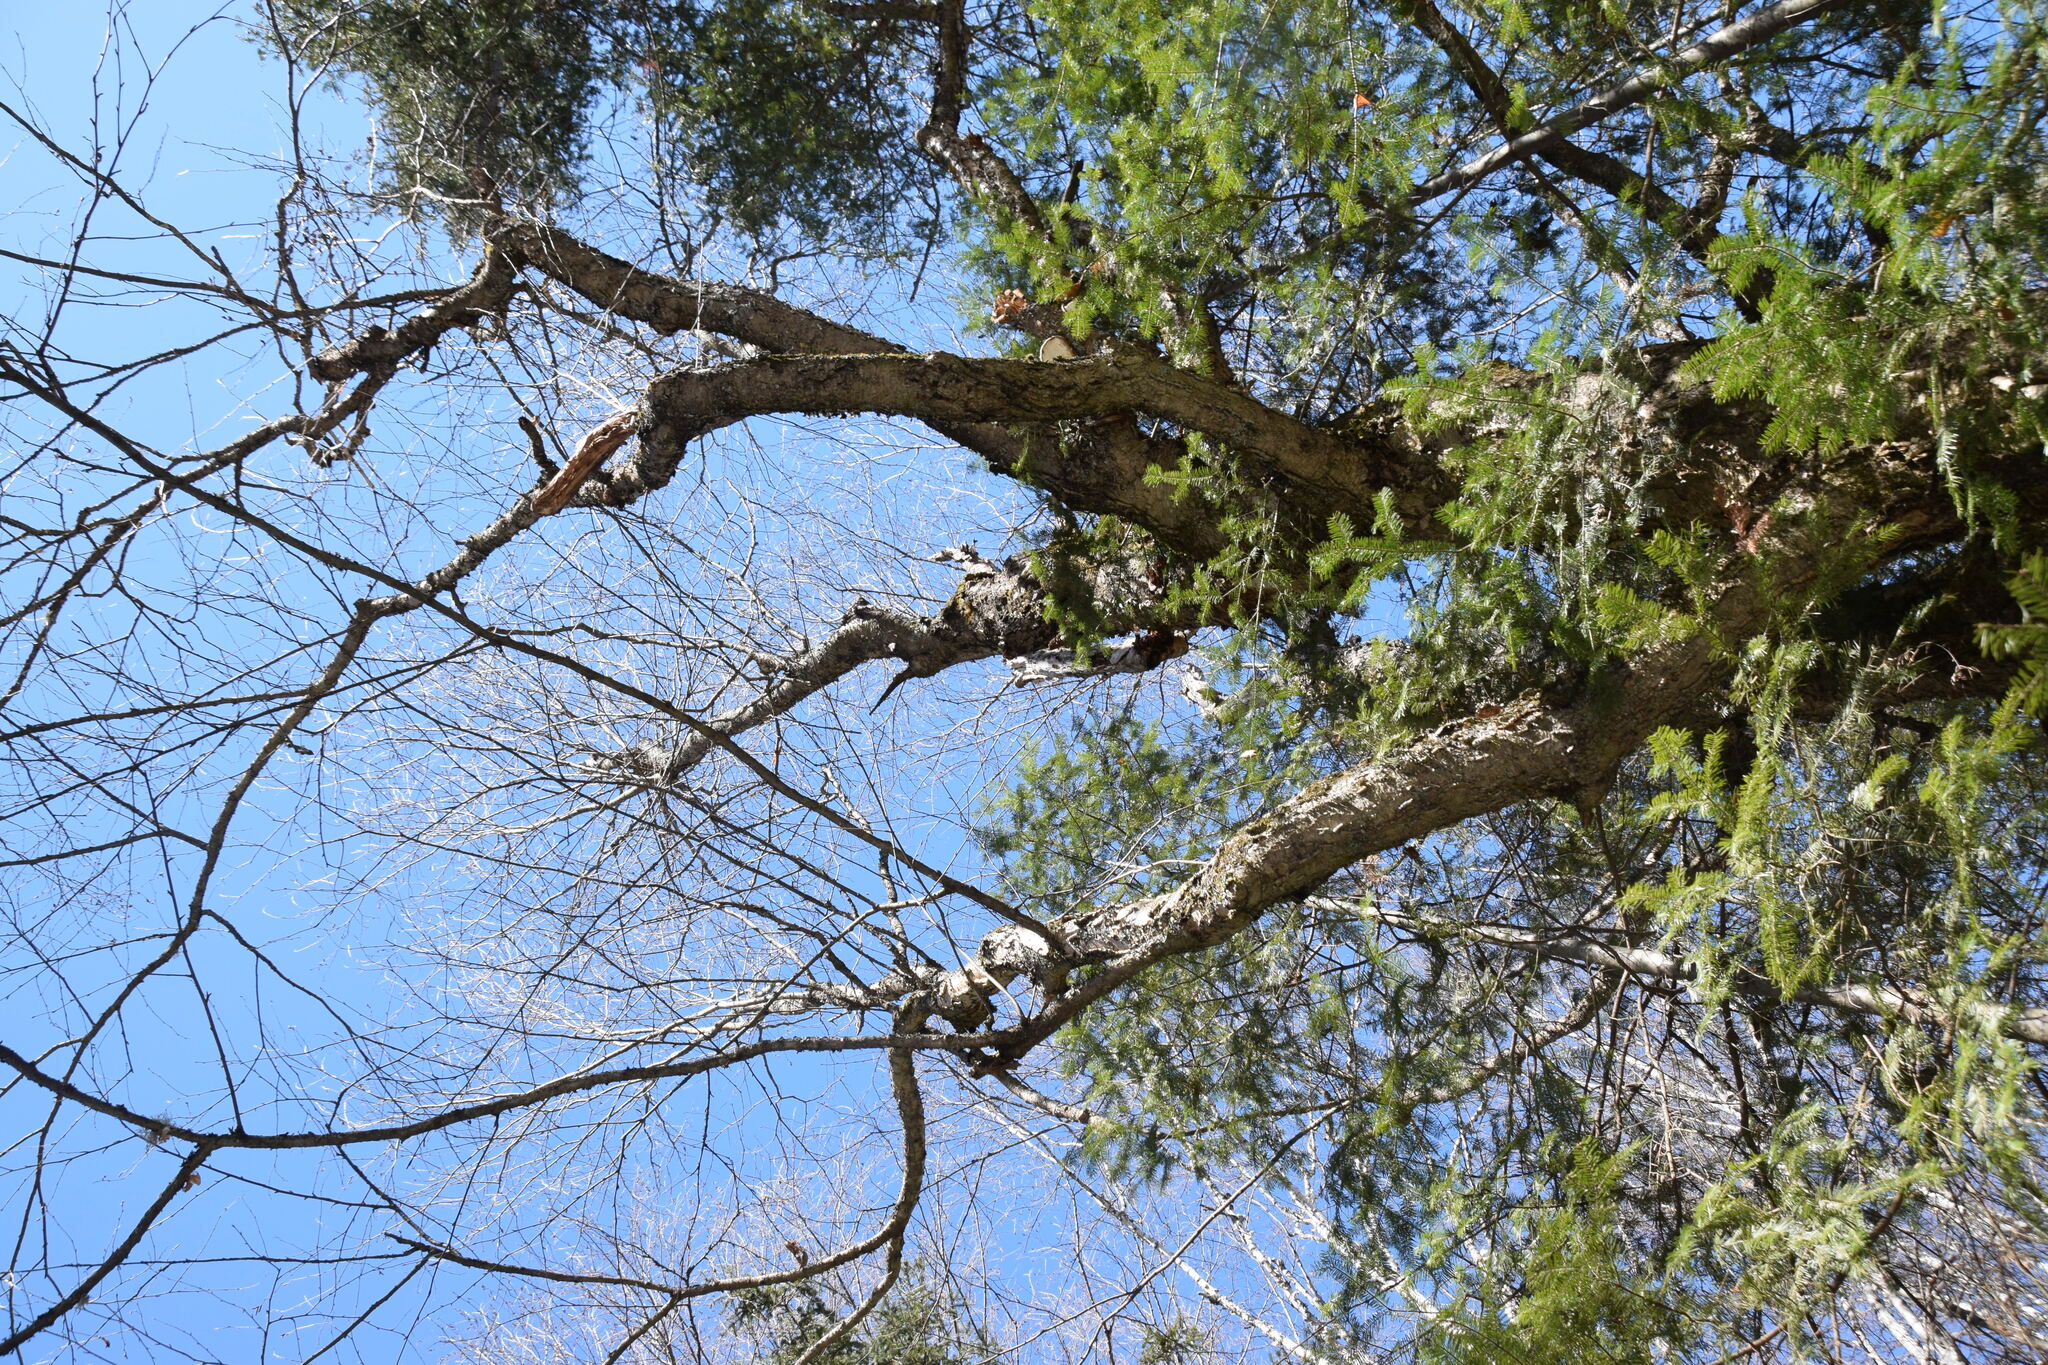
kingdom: Plantae
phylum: Tracheophyta
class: Magnoliopsida
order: Fagales
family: Betulaceae
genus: Betula
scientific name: Betula alleghaniensis
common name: Yellow birch
